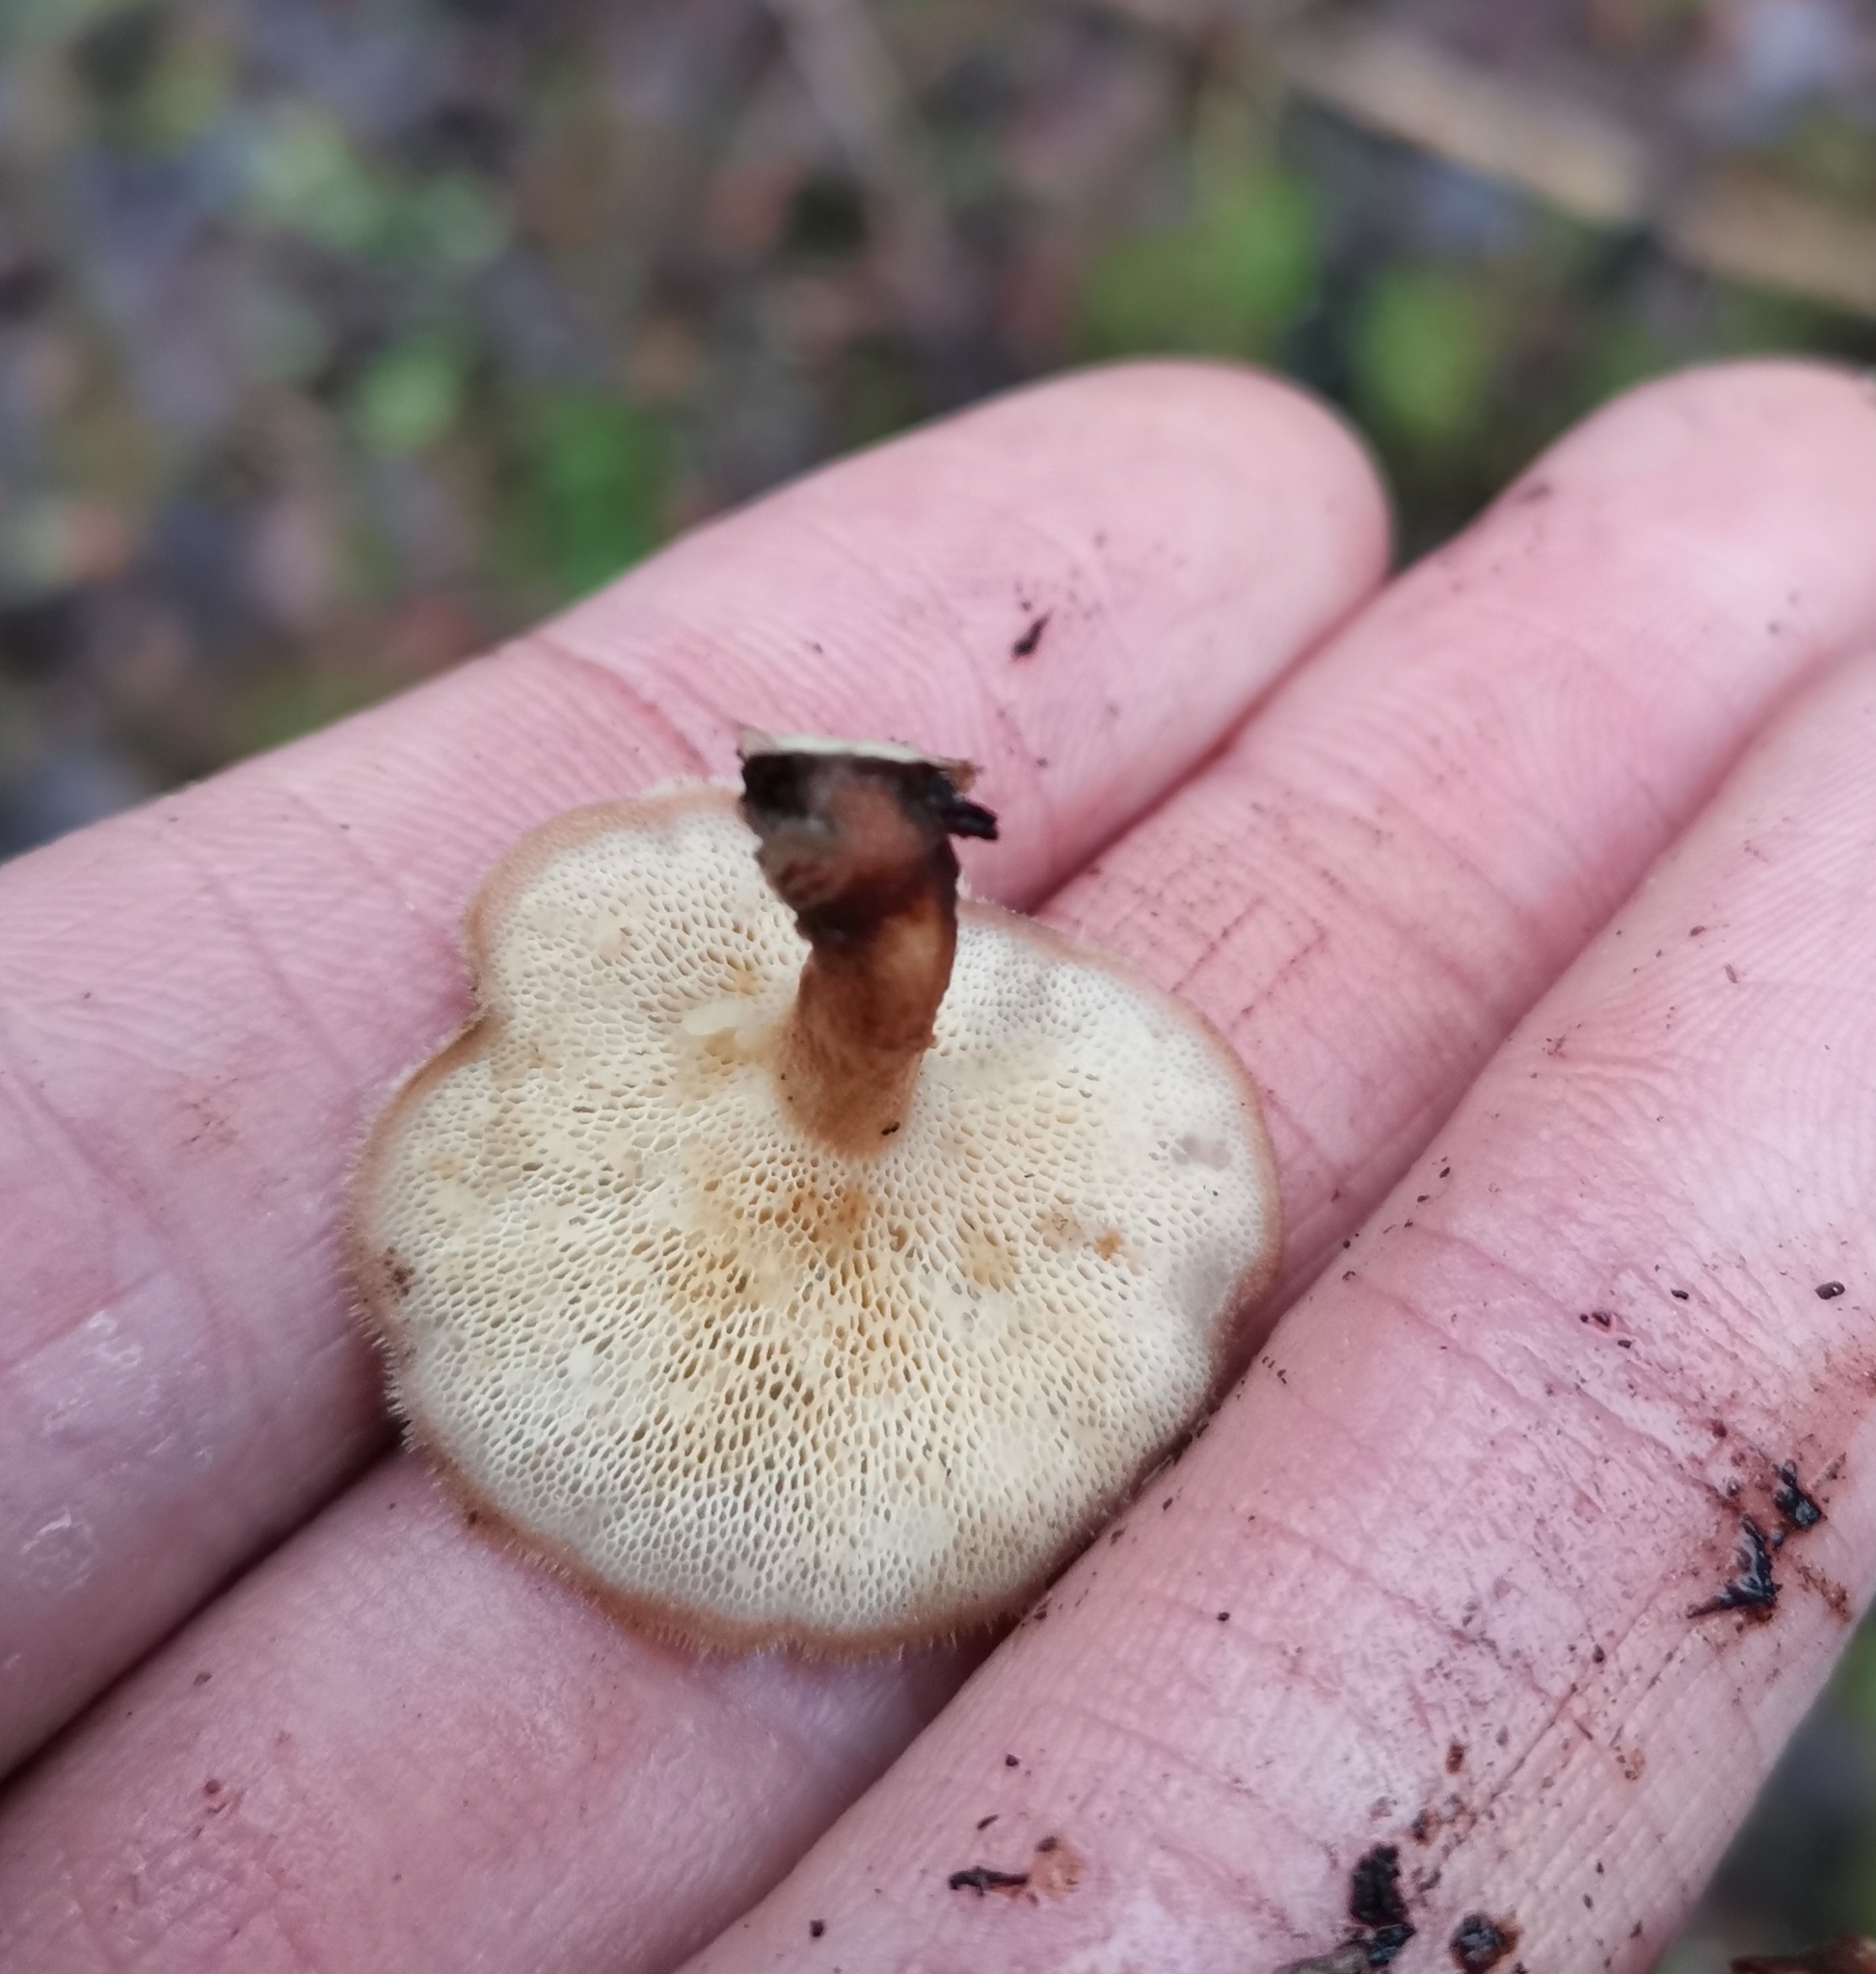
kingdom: Fungi
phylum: Basidiomycota
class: Agaricomycetes
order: Polyporales
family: Polyporaceae
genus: Lentinus
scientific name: Lentinus brumalis
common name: Winter polypore
